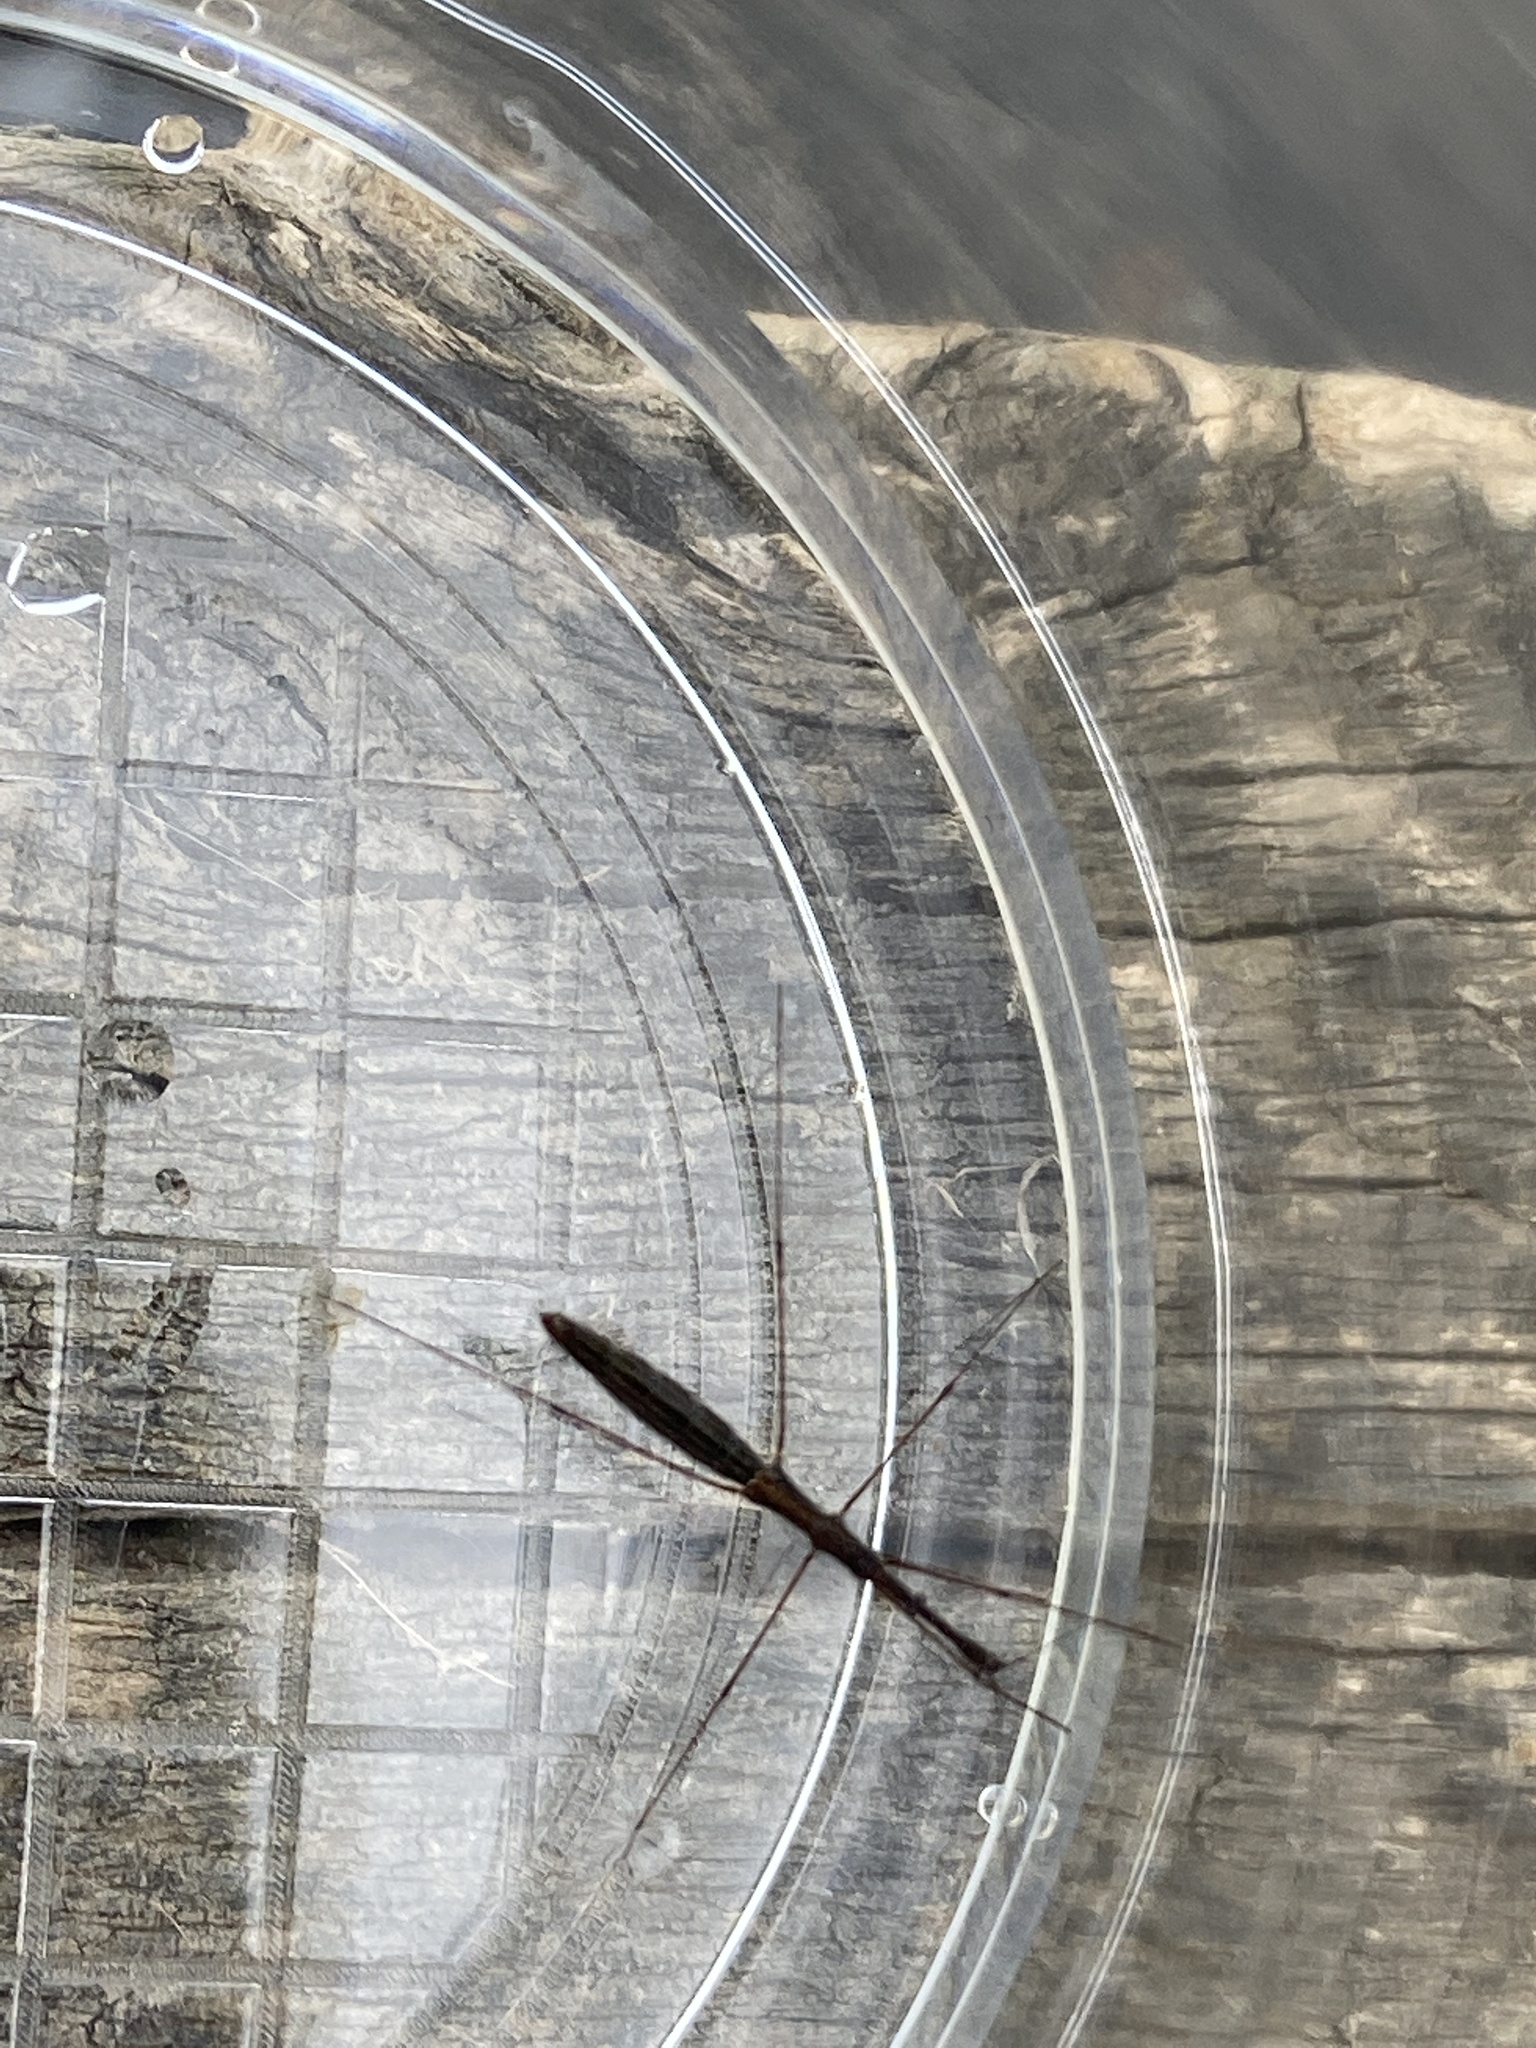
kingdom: Animalia
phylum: Arthropoda
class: Insecta
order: Hemiptera
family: Hydrometridae
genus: Hydrometra
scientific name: Hydrometra stagnorum
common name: Water measurer
